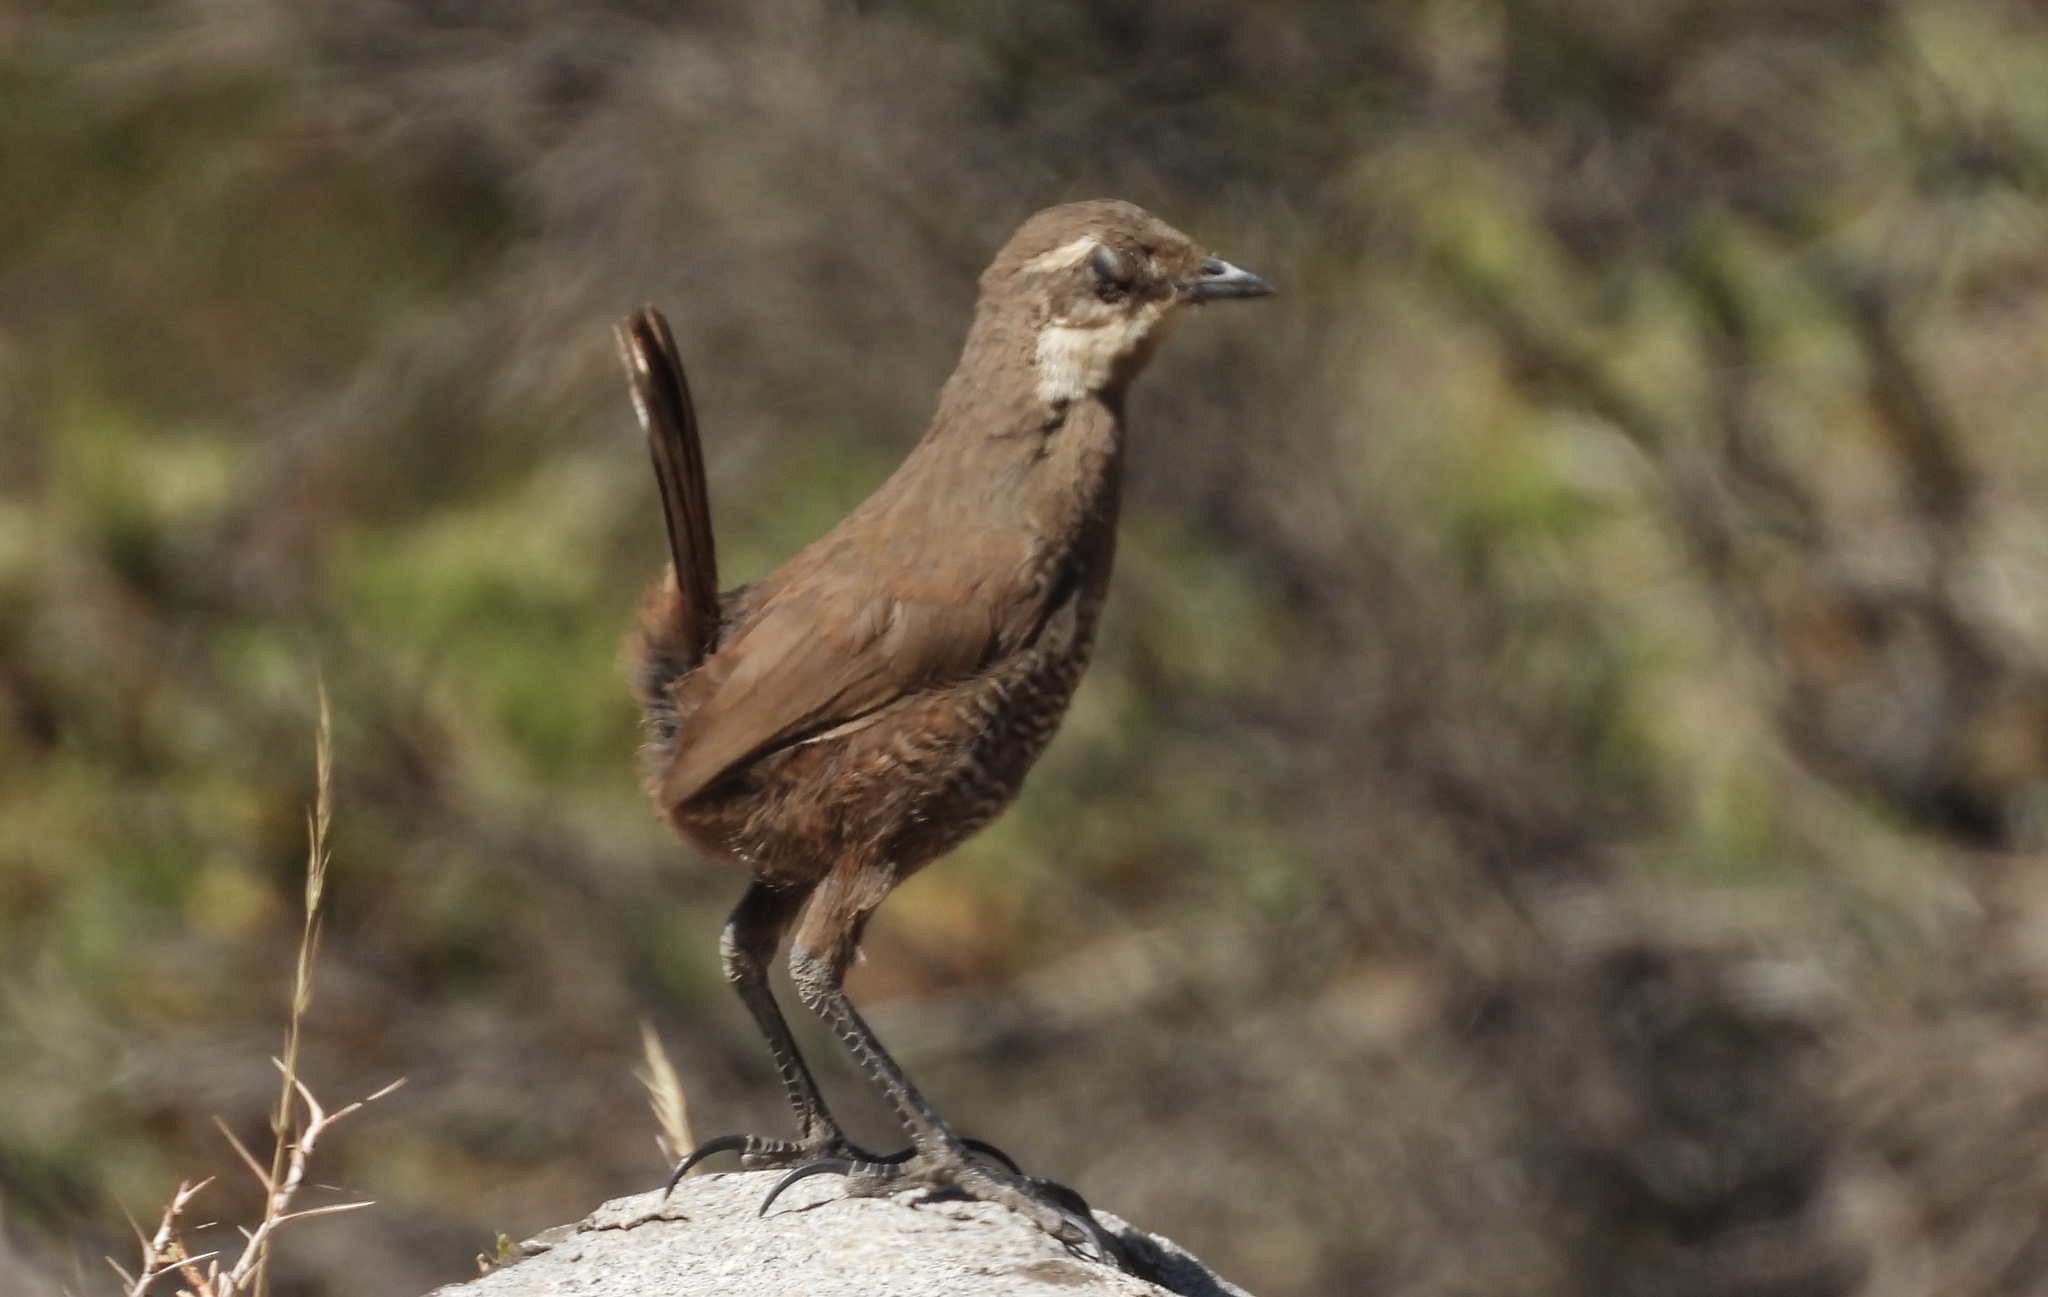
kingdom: Animalia
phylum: Chordata
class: Aves
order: Passeriformes
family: Rhinocryptidae
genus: Pteroptochos
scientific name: Pteroptochos megapodius
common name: Moustached turca
